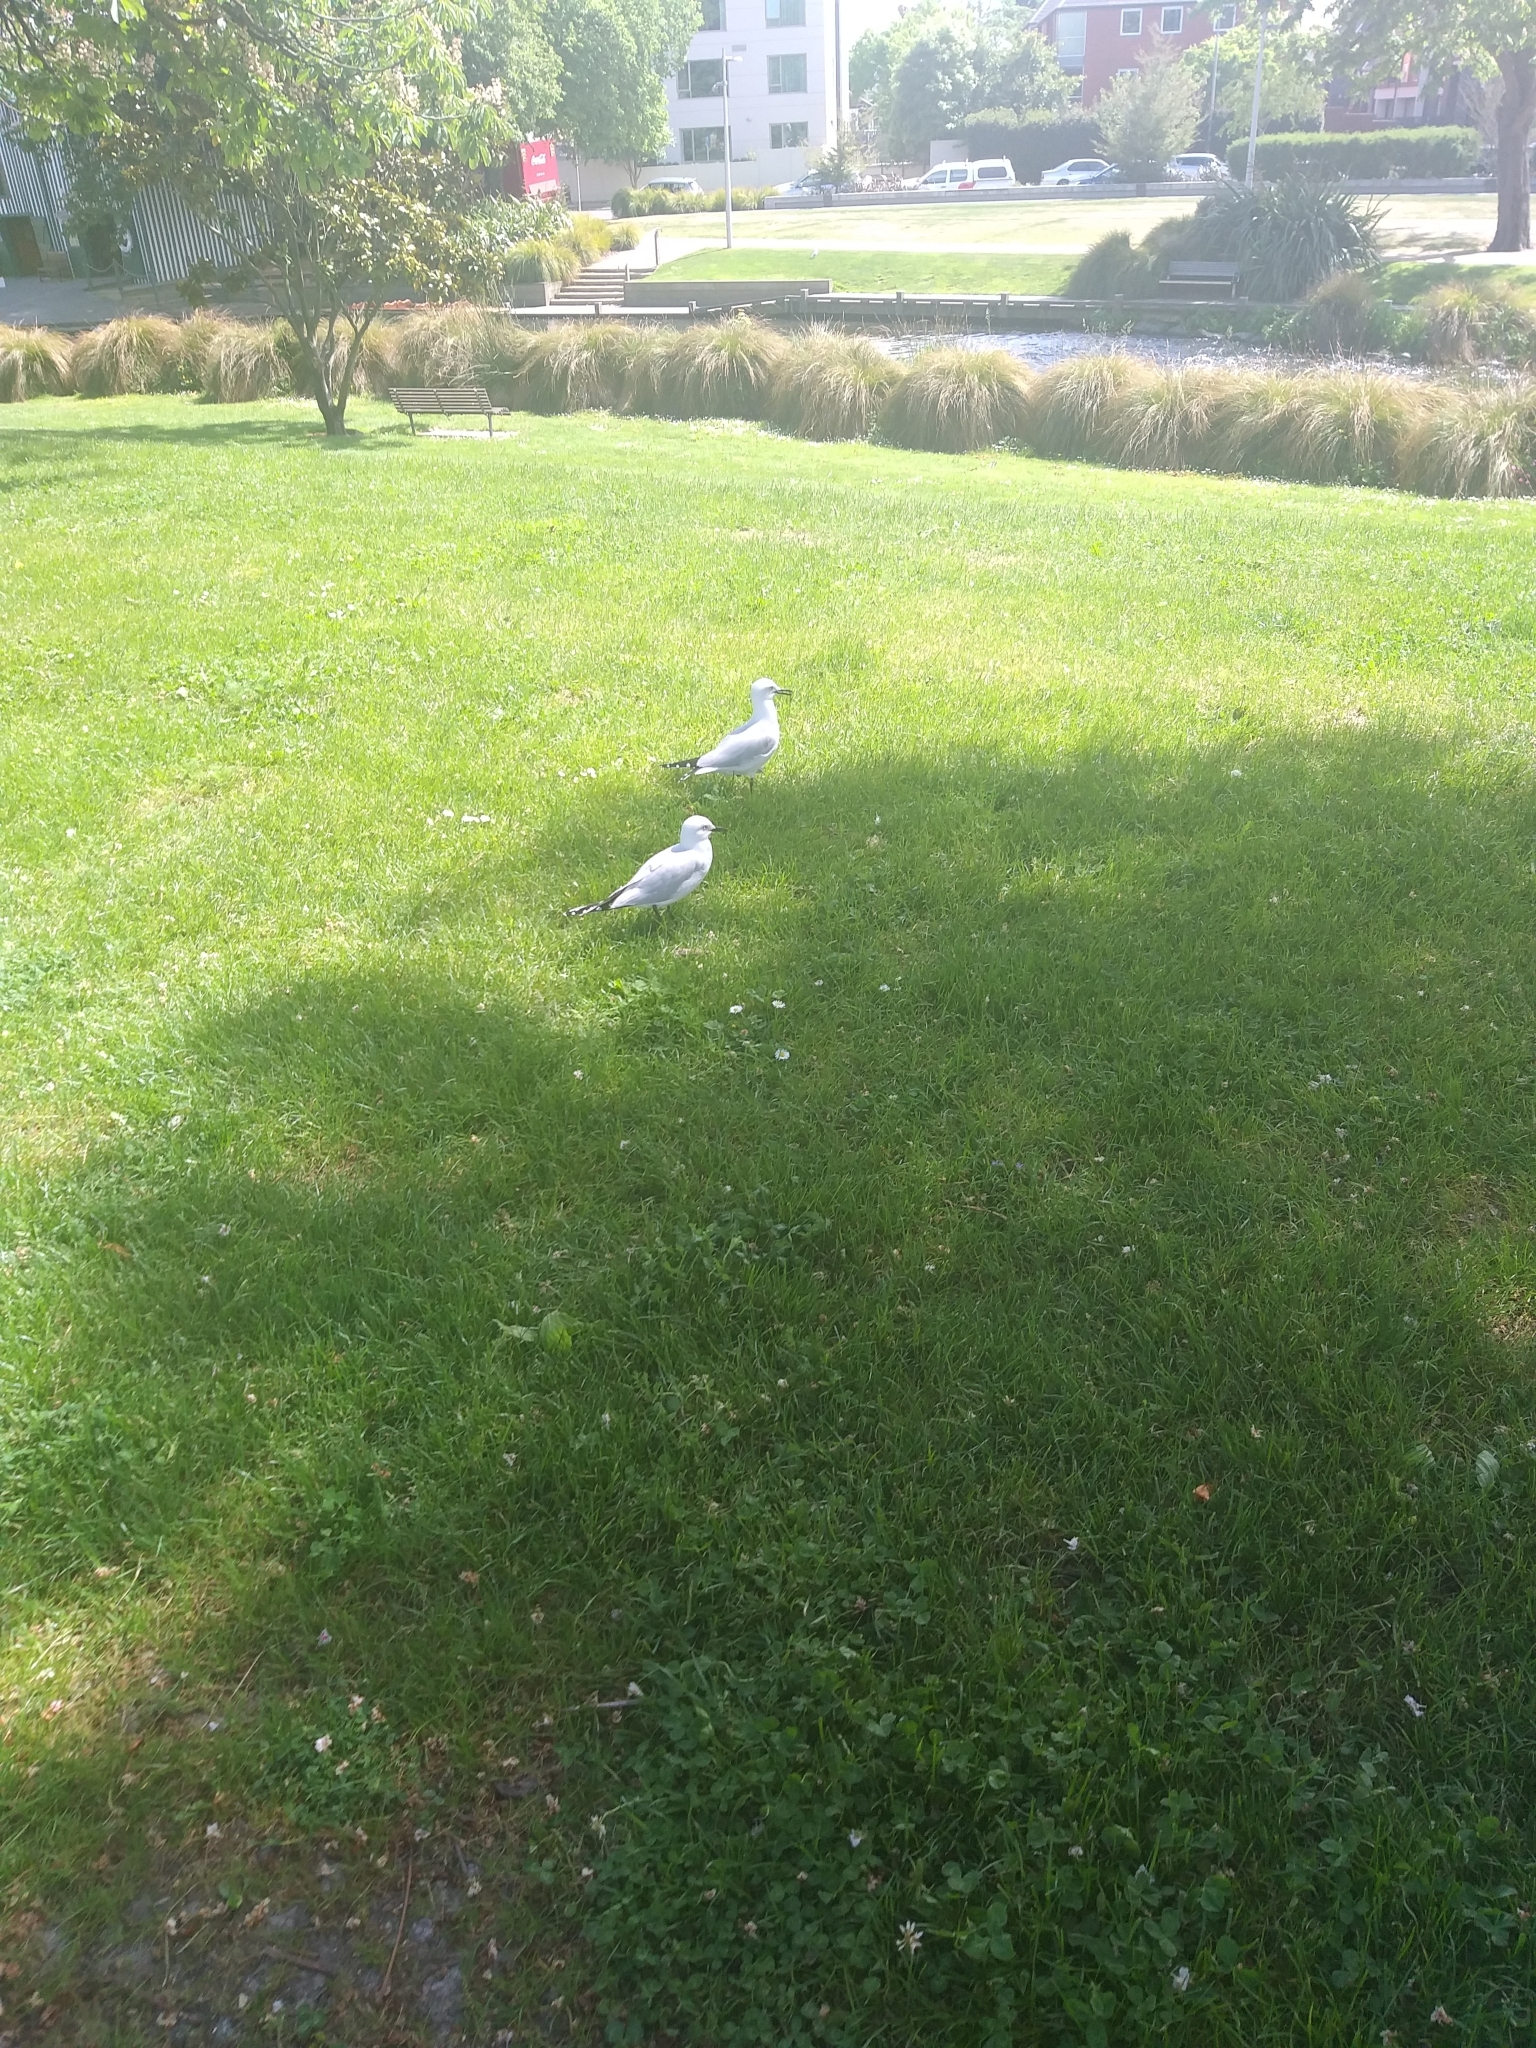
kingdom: Animalia
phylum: Chordata
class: Aves
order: Charadriiformes
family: Laridae
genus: Chroicocephalus
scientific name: Chroicocephalus bulleri
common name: Black-billed gull
